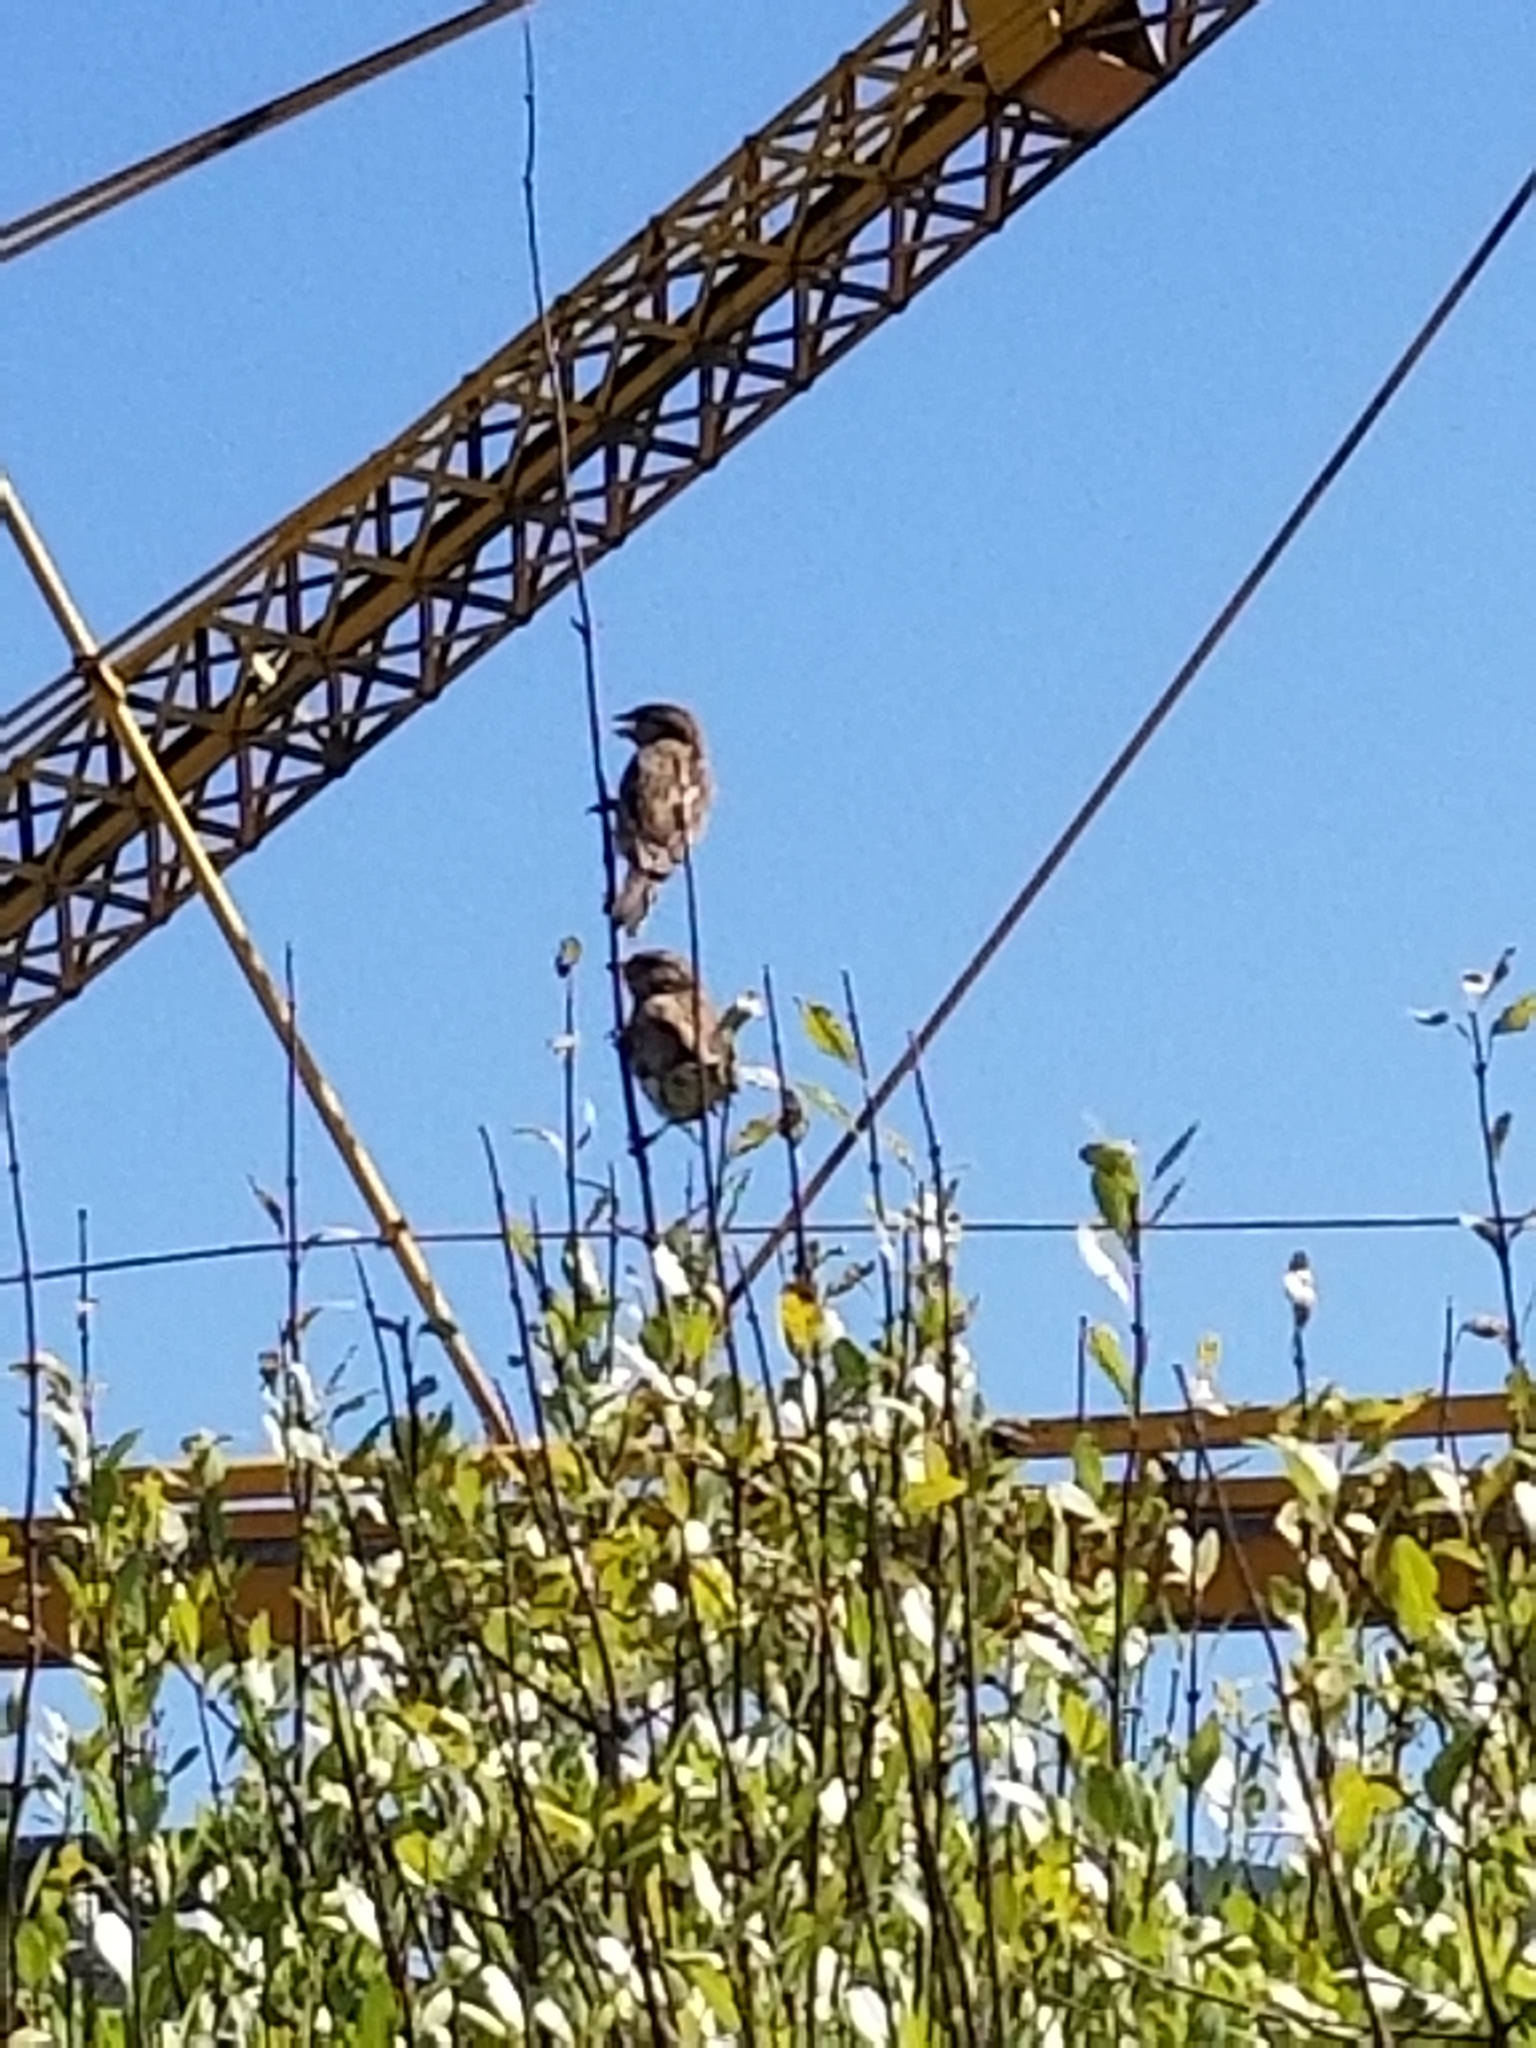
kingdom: Animalia
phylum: Chordata
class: Aves
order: Passeriformes
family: Passeridae
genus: Passer
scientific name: Passer domesticus
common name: House sparrow
